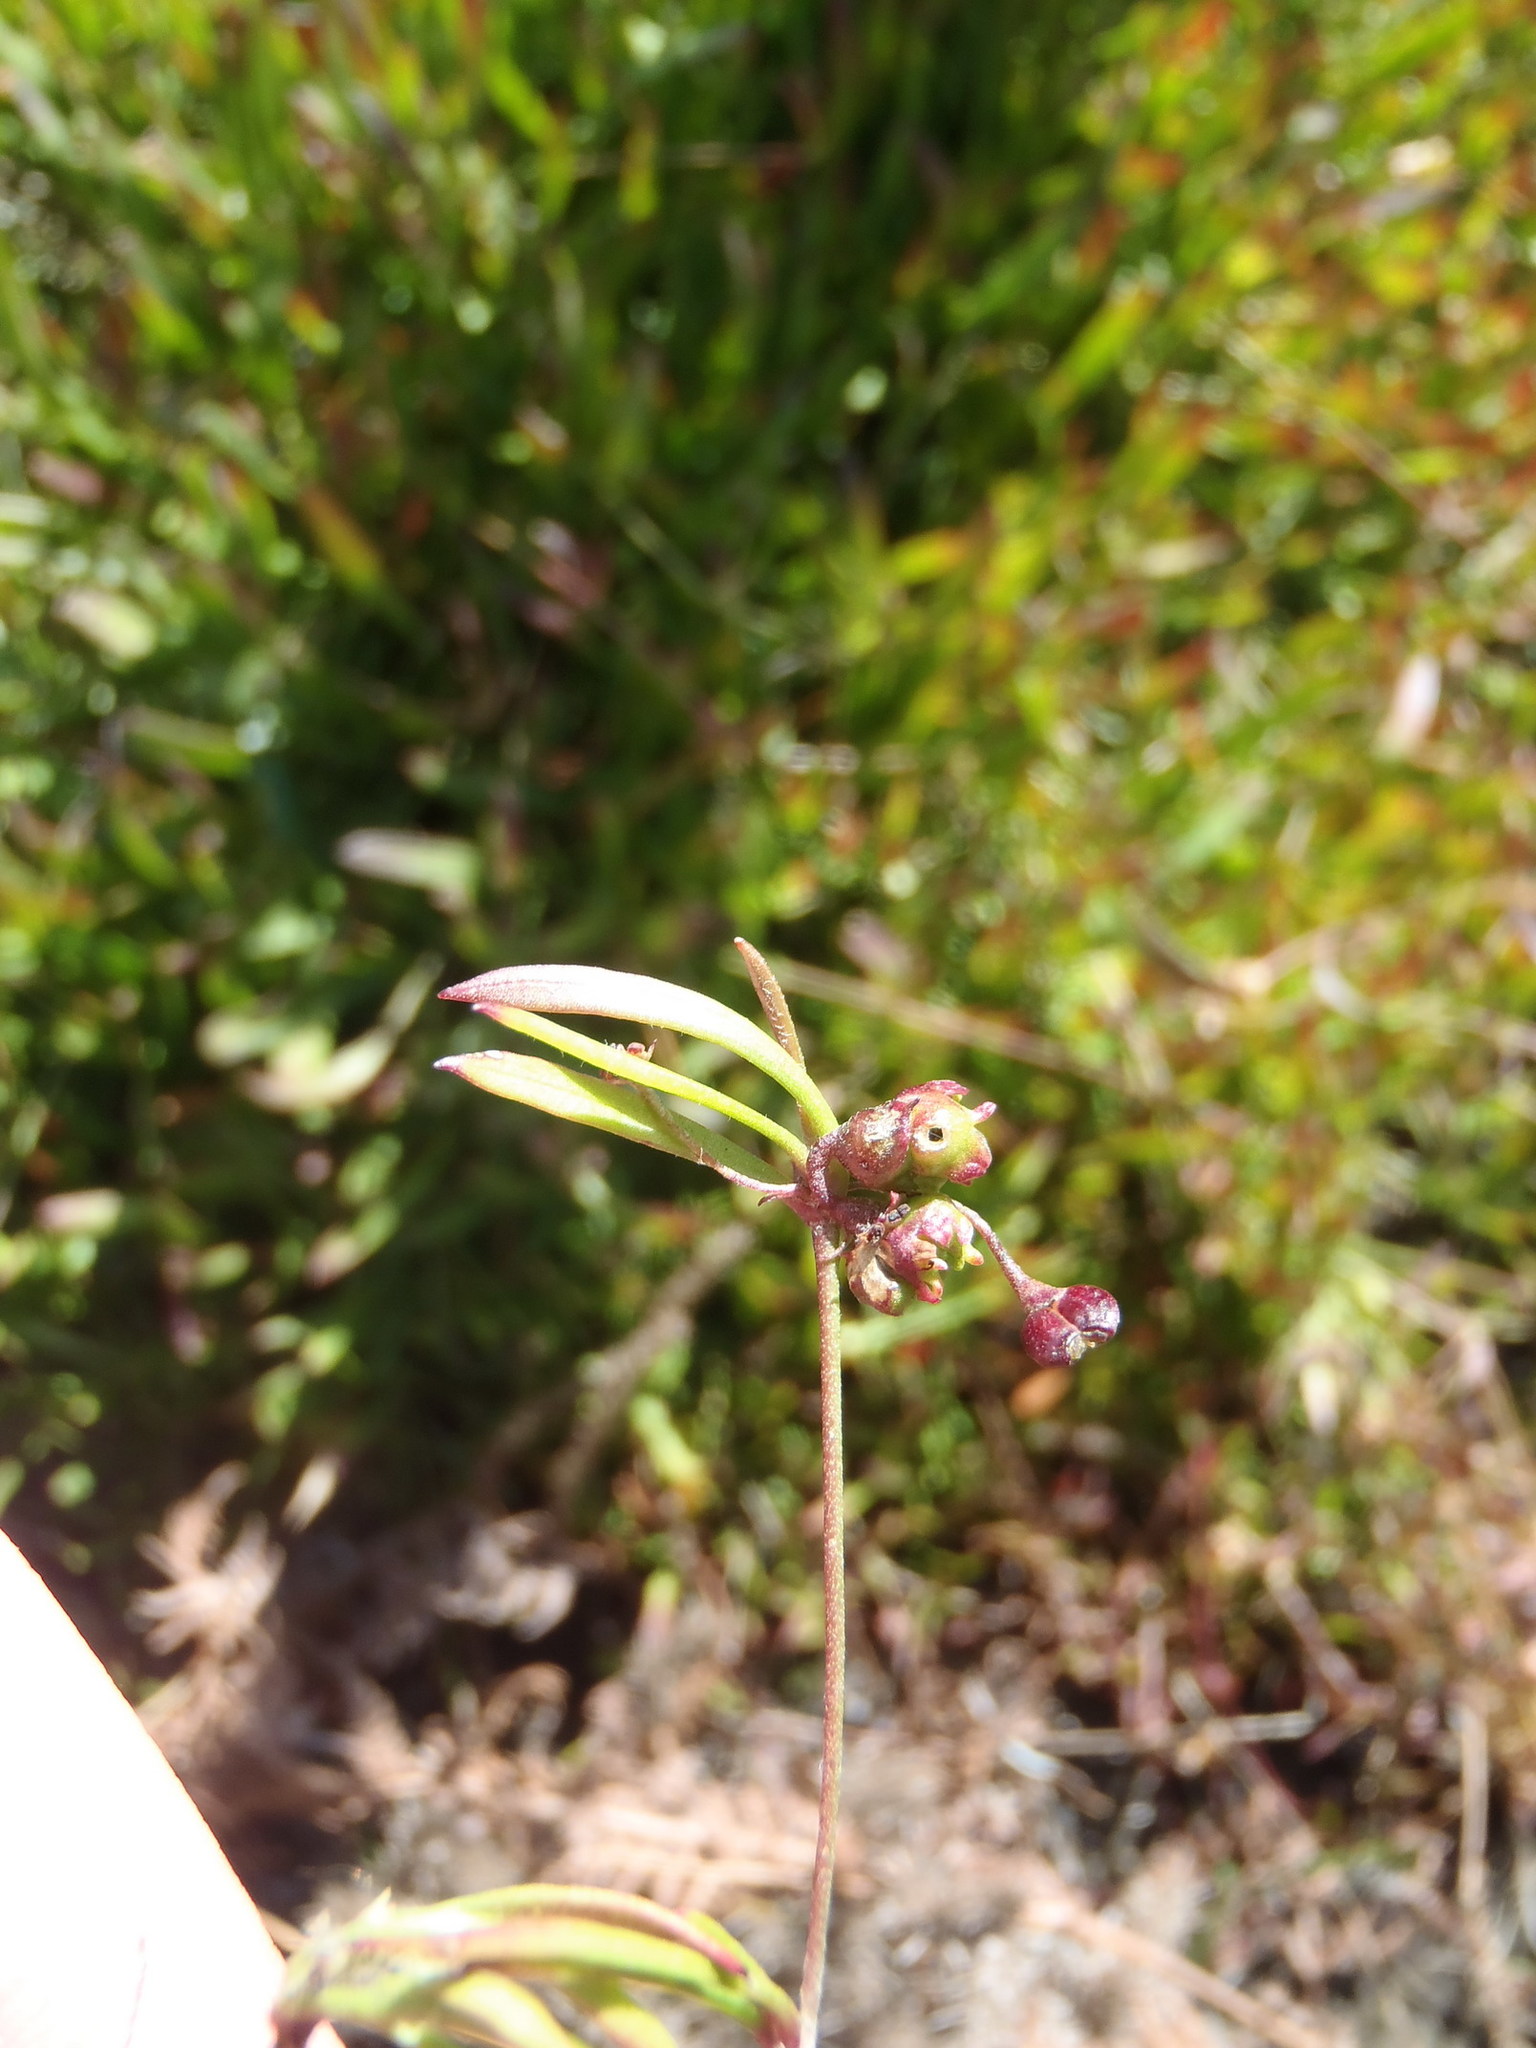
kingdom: Plantae
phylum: Tracheophyta
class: Magnoliopsida
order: Apiales
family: Apiaceae
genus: Centella
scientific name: Centella glabrata
